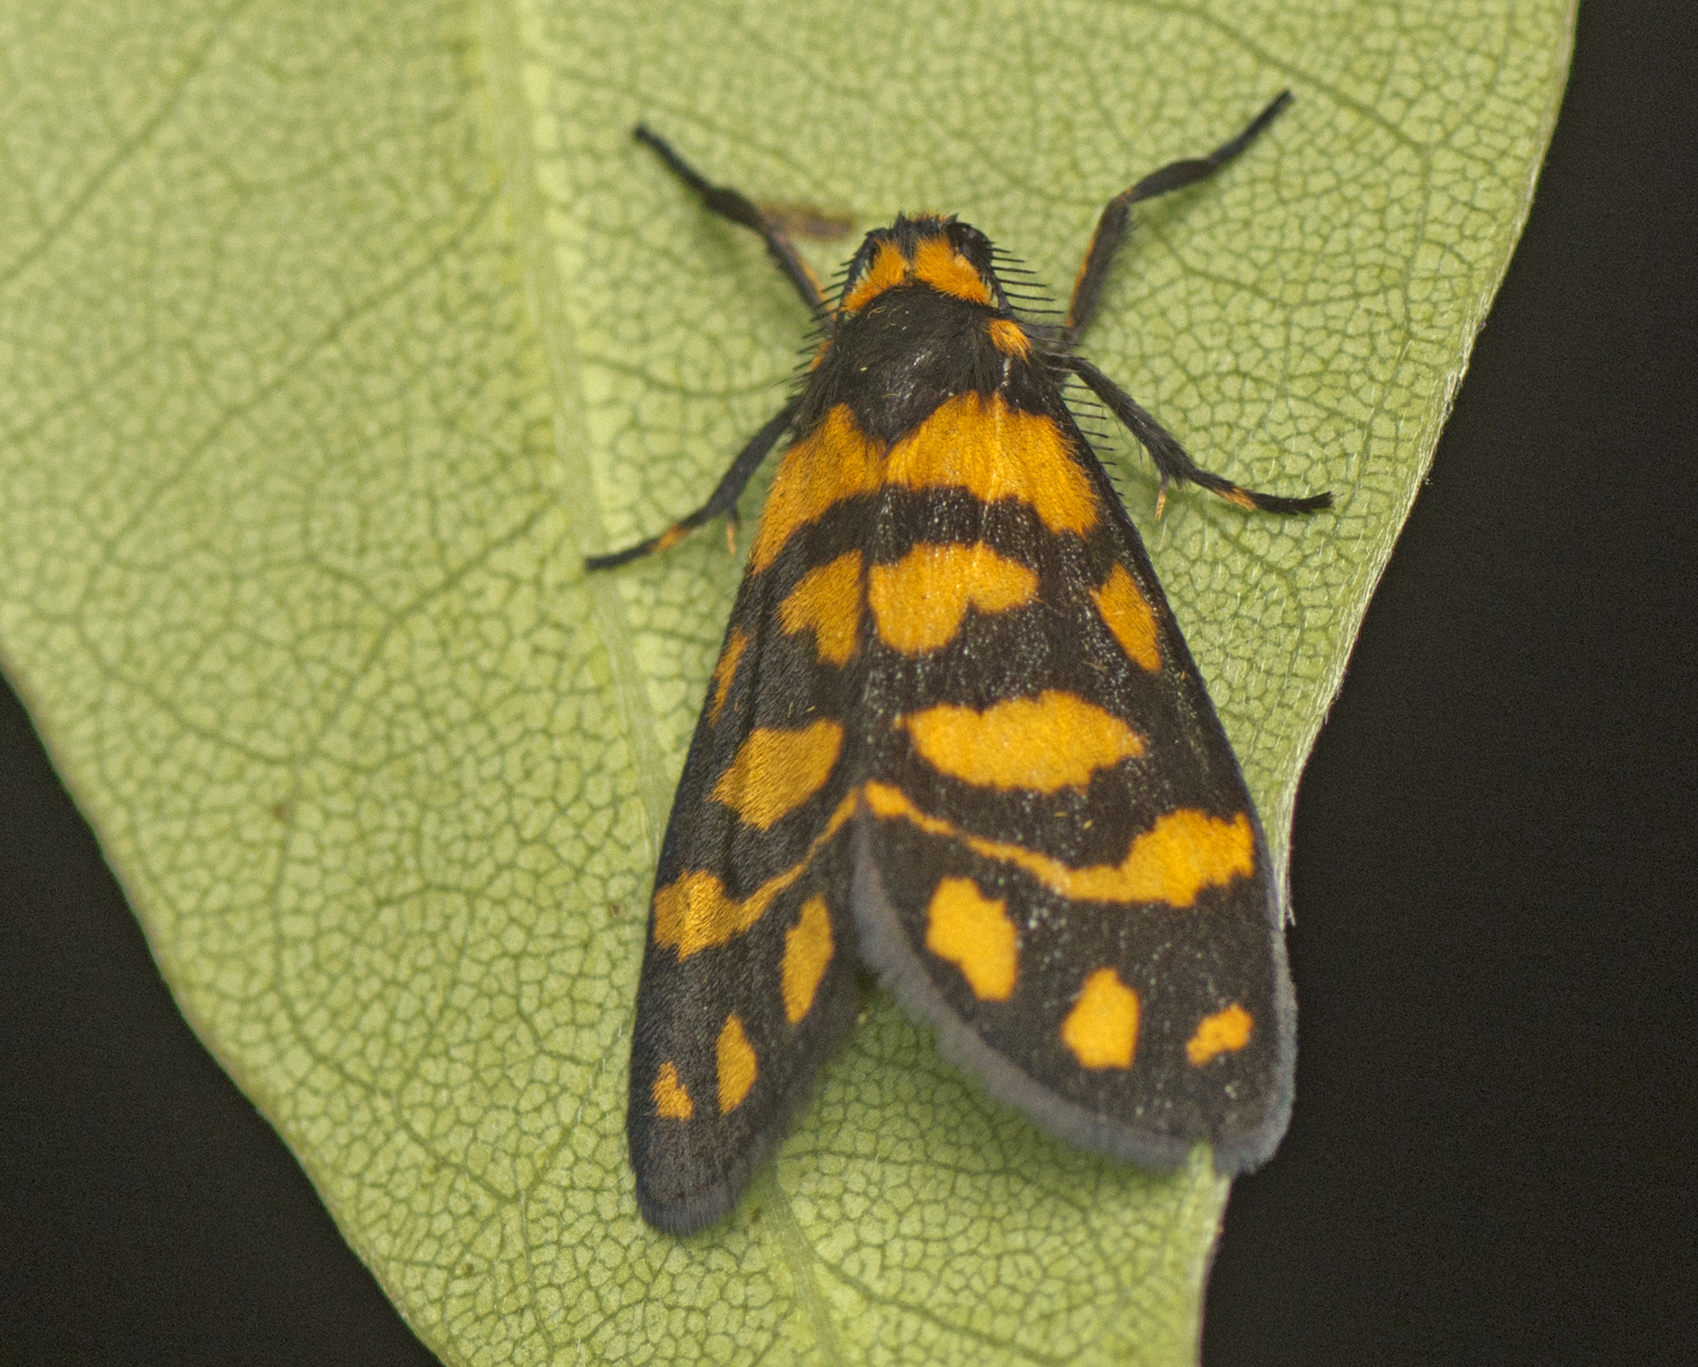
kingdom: Animalia
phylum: Arthropoda
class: Insecta
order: Lepidoptera
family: Erebidae
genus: Asura
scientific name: Asura lydia
